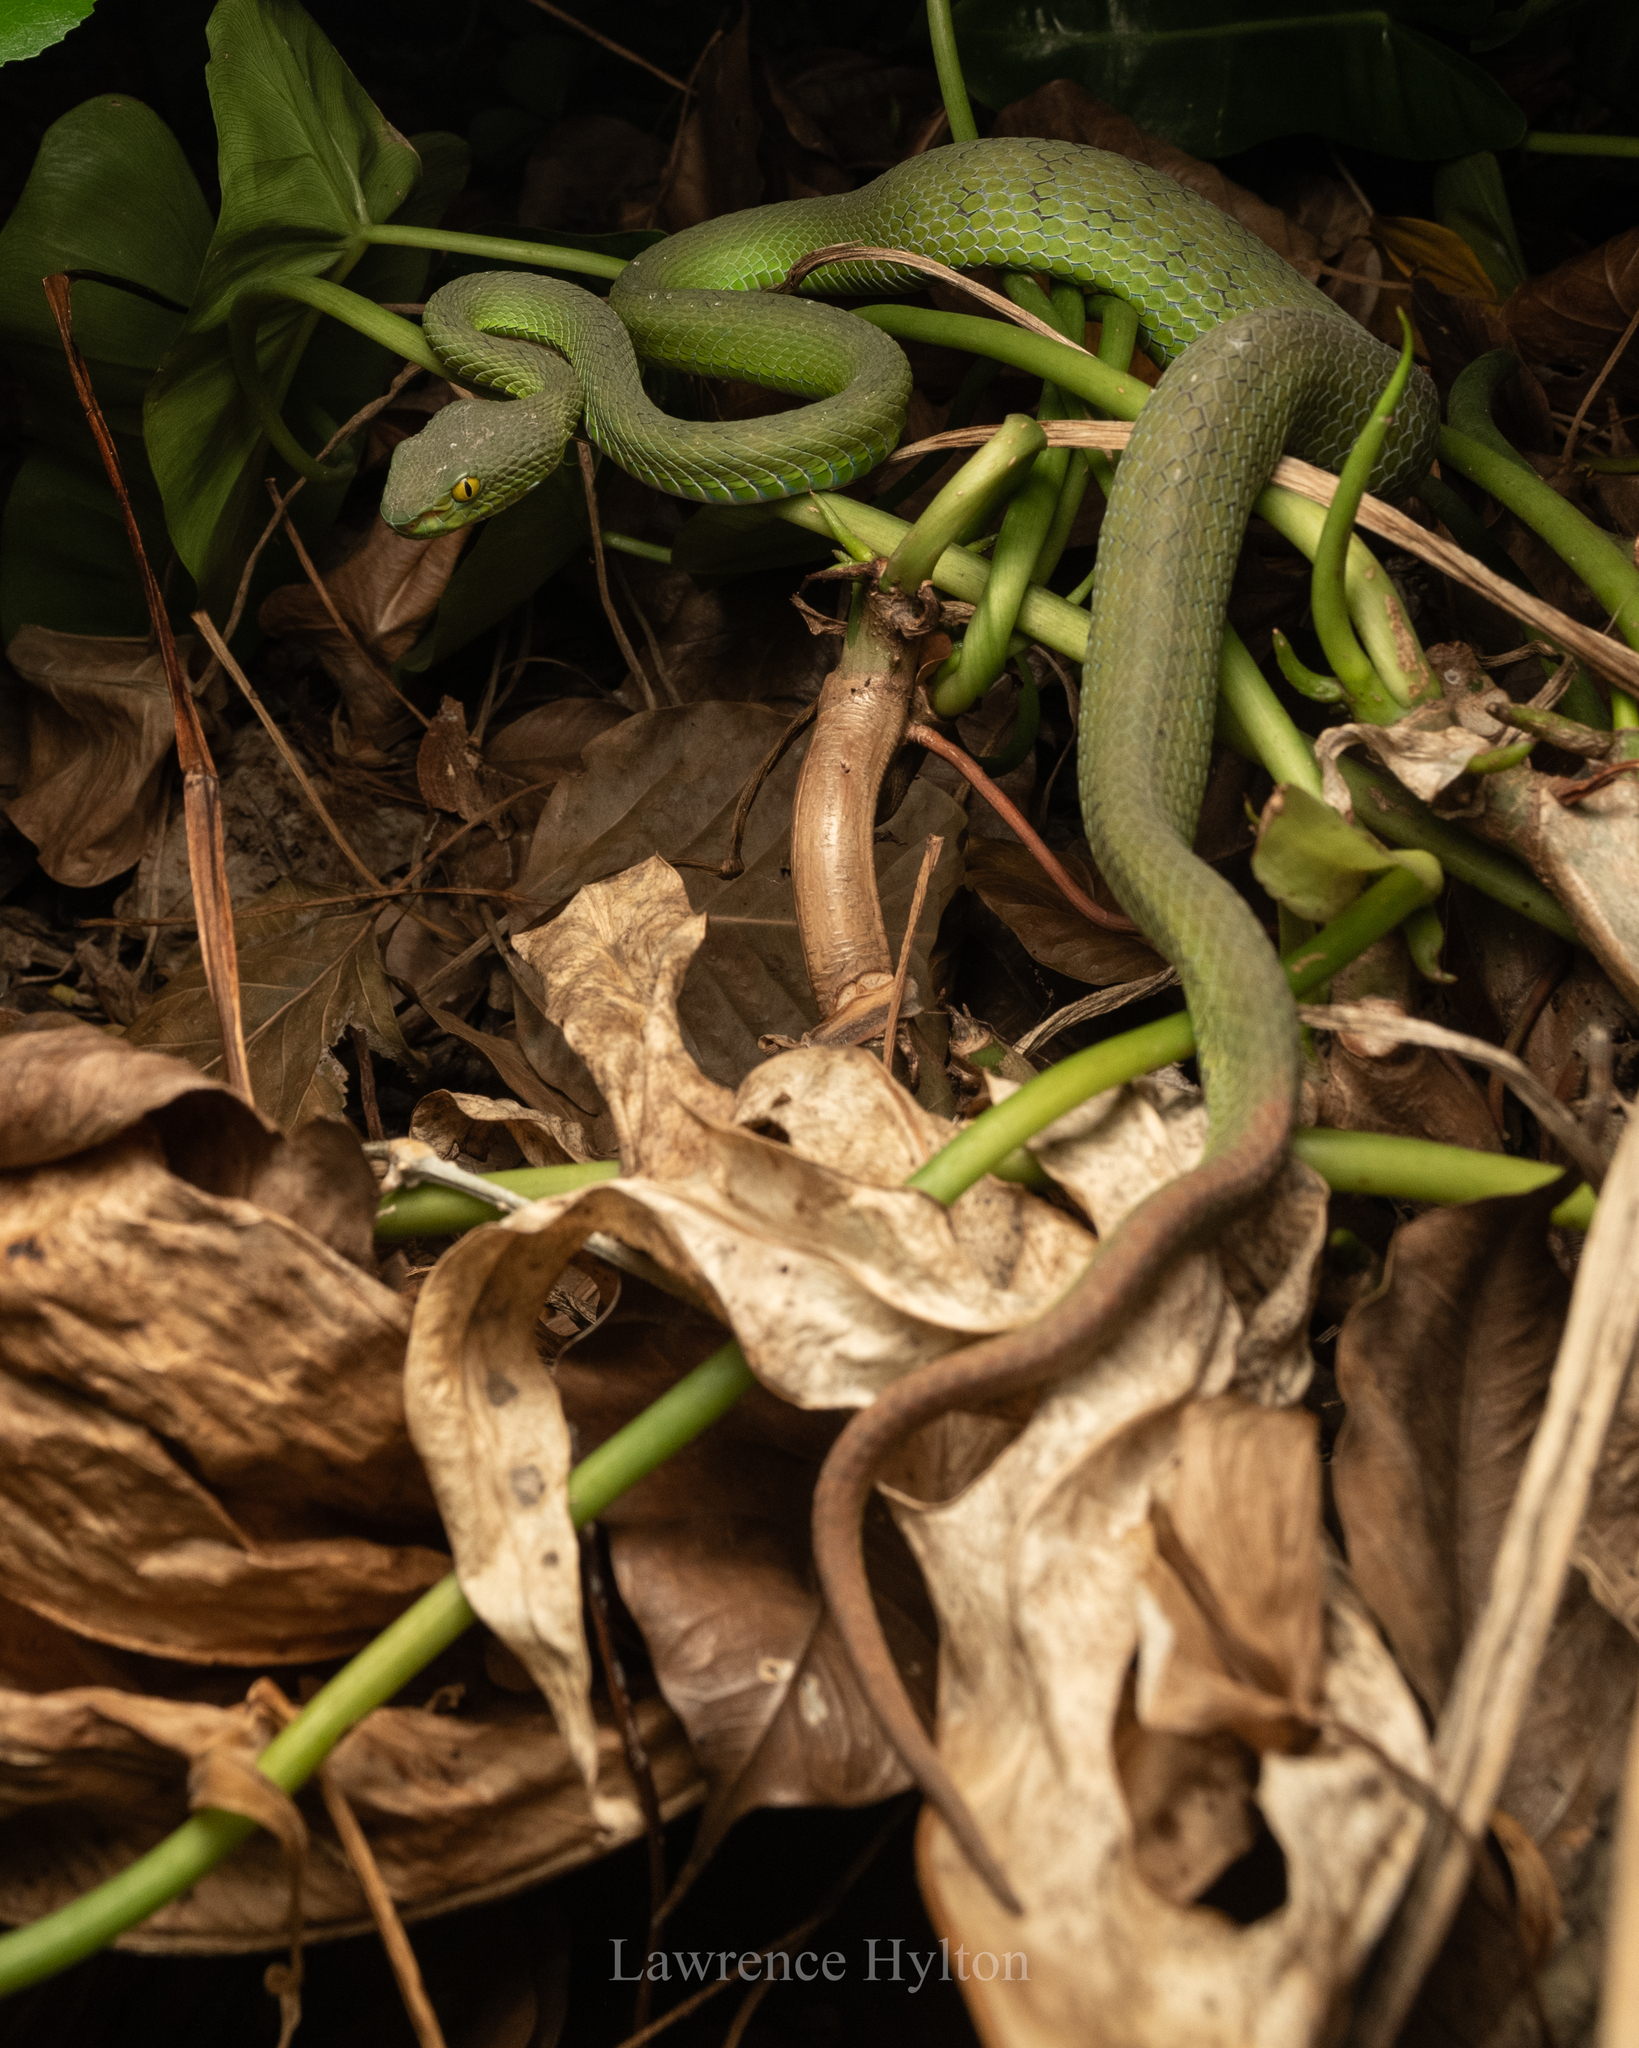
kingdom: Animalia
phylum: Chordata
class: Squamata
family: Viperidae
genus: Trimeresurus
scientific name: Trimeresurus macrops
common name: Kramer's pit viper
